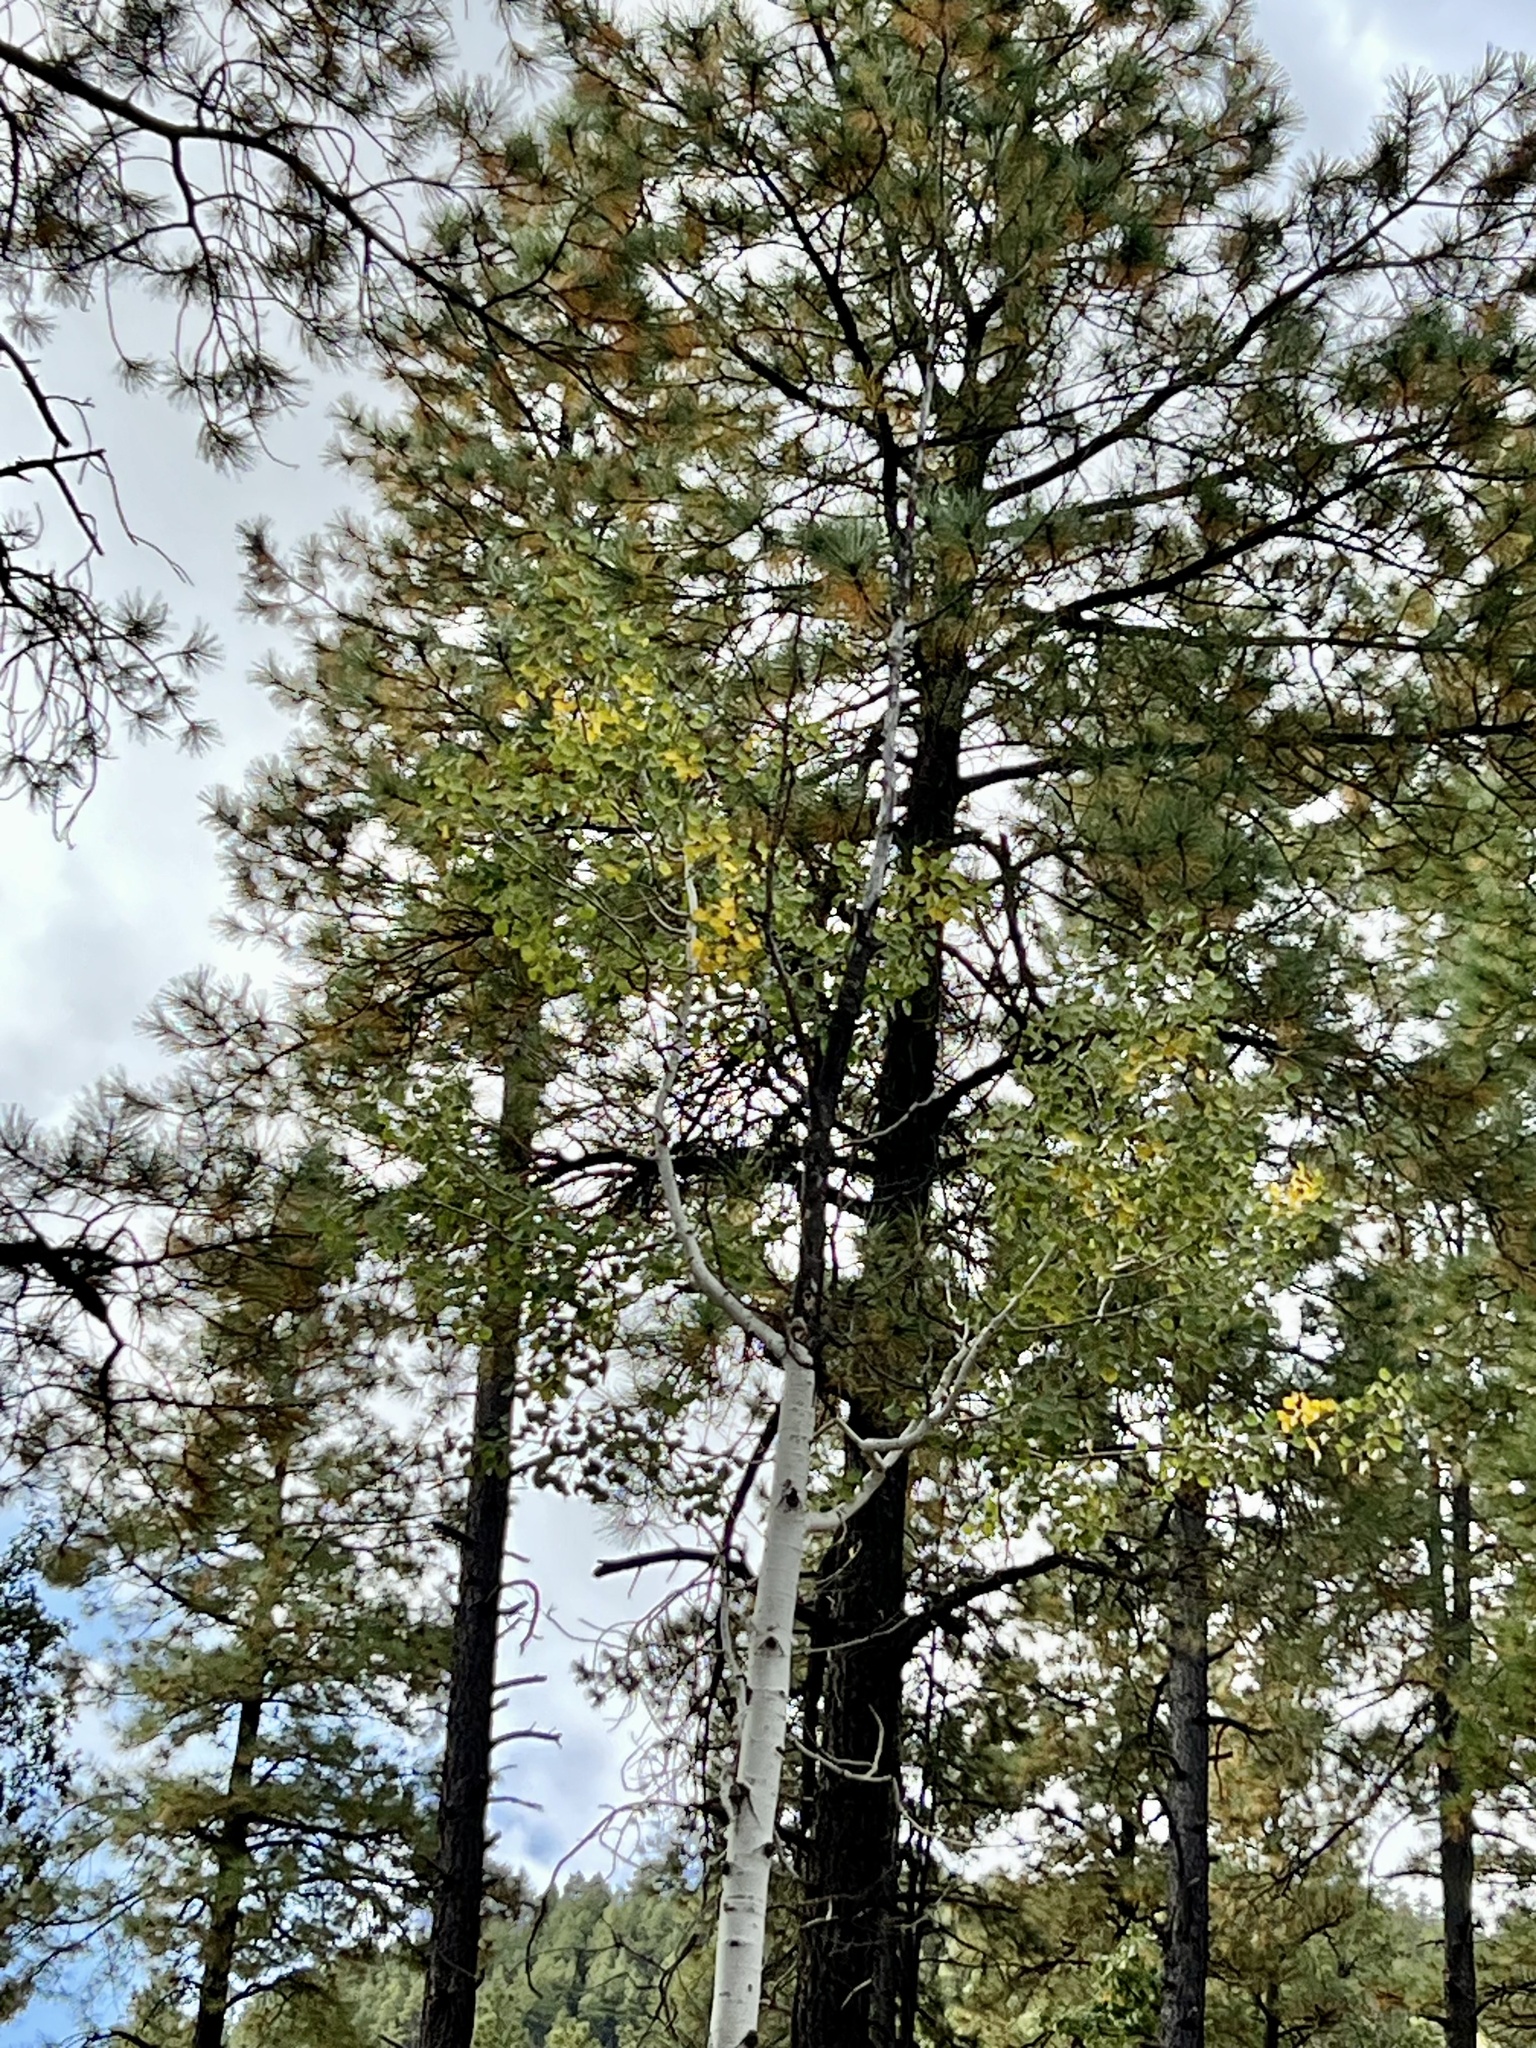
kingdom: Plantae
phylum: Tracheophyta
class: Magnoliopsida
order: Malpighiales
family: Salicaceae
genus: Populus
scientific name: Populus tremuloides
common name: Quaking aspen
